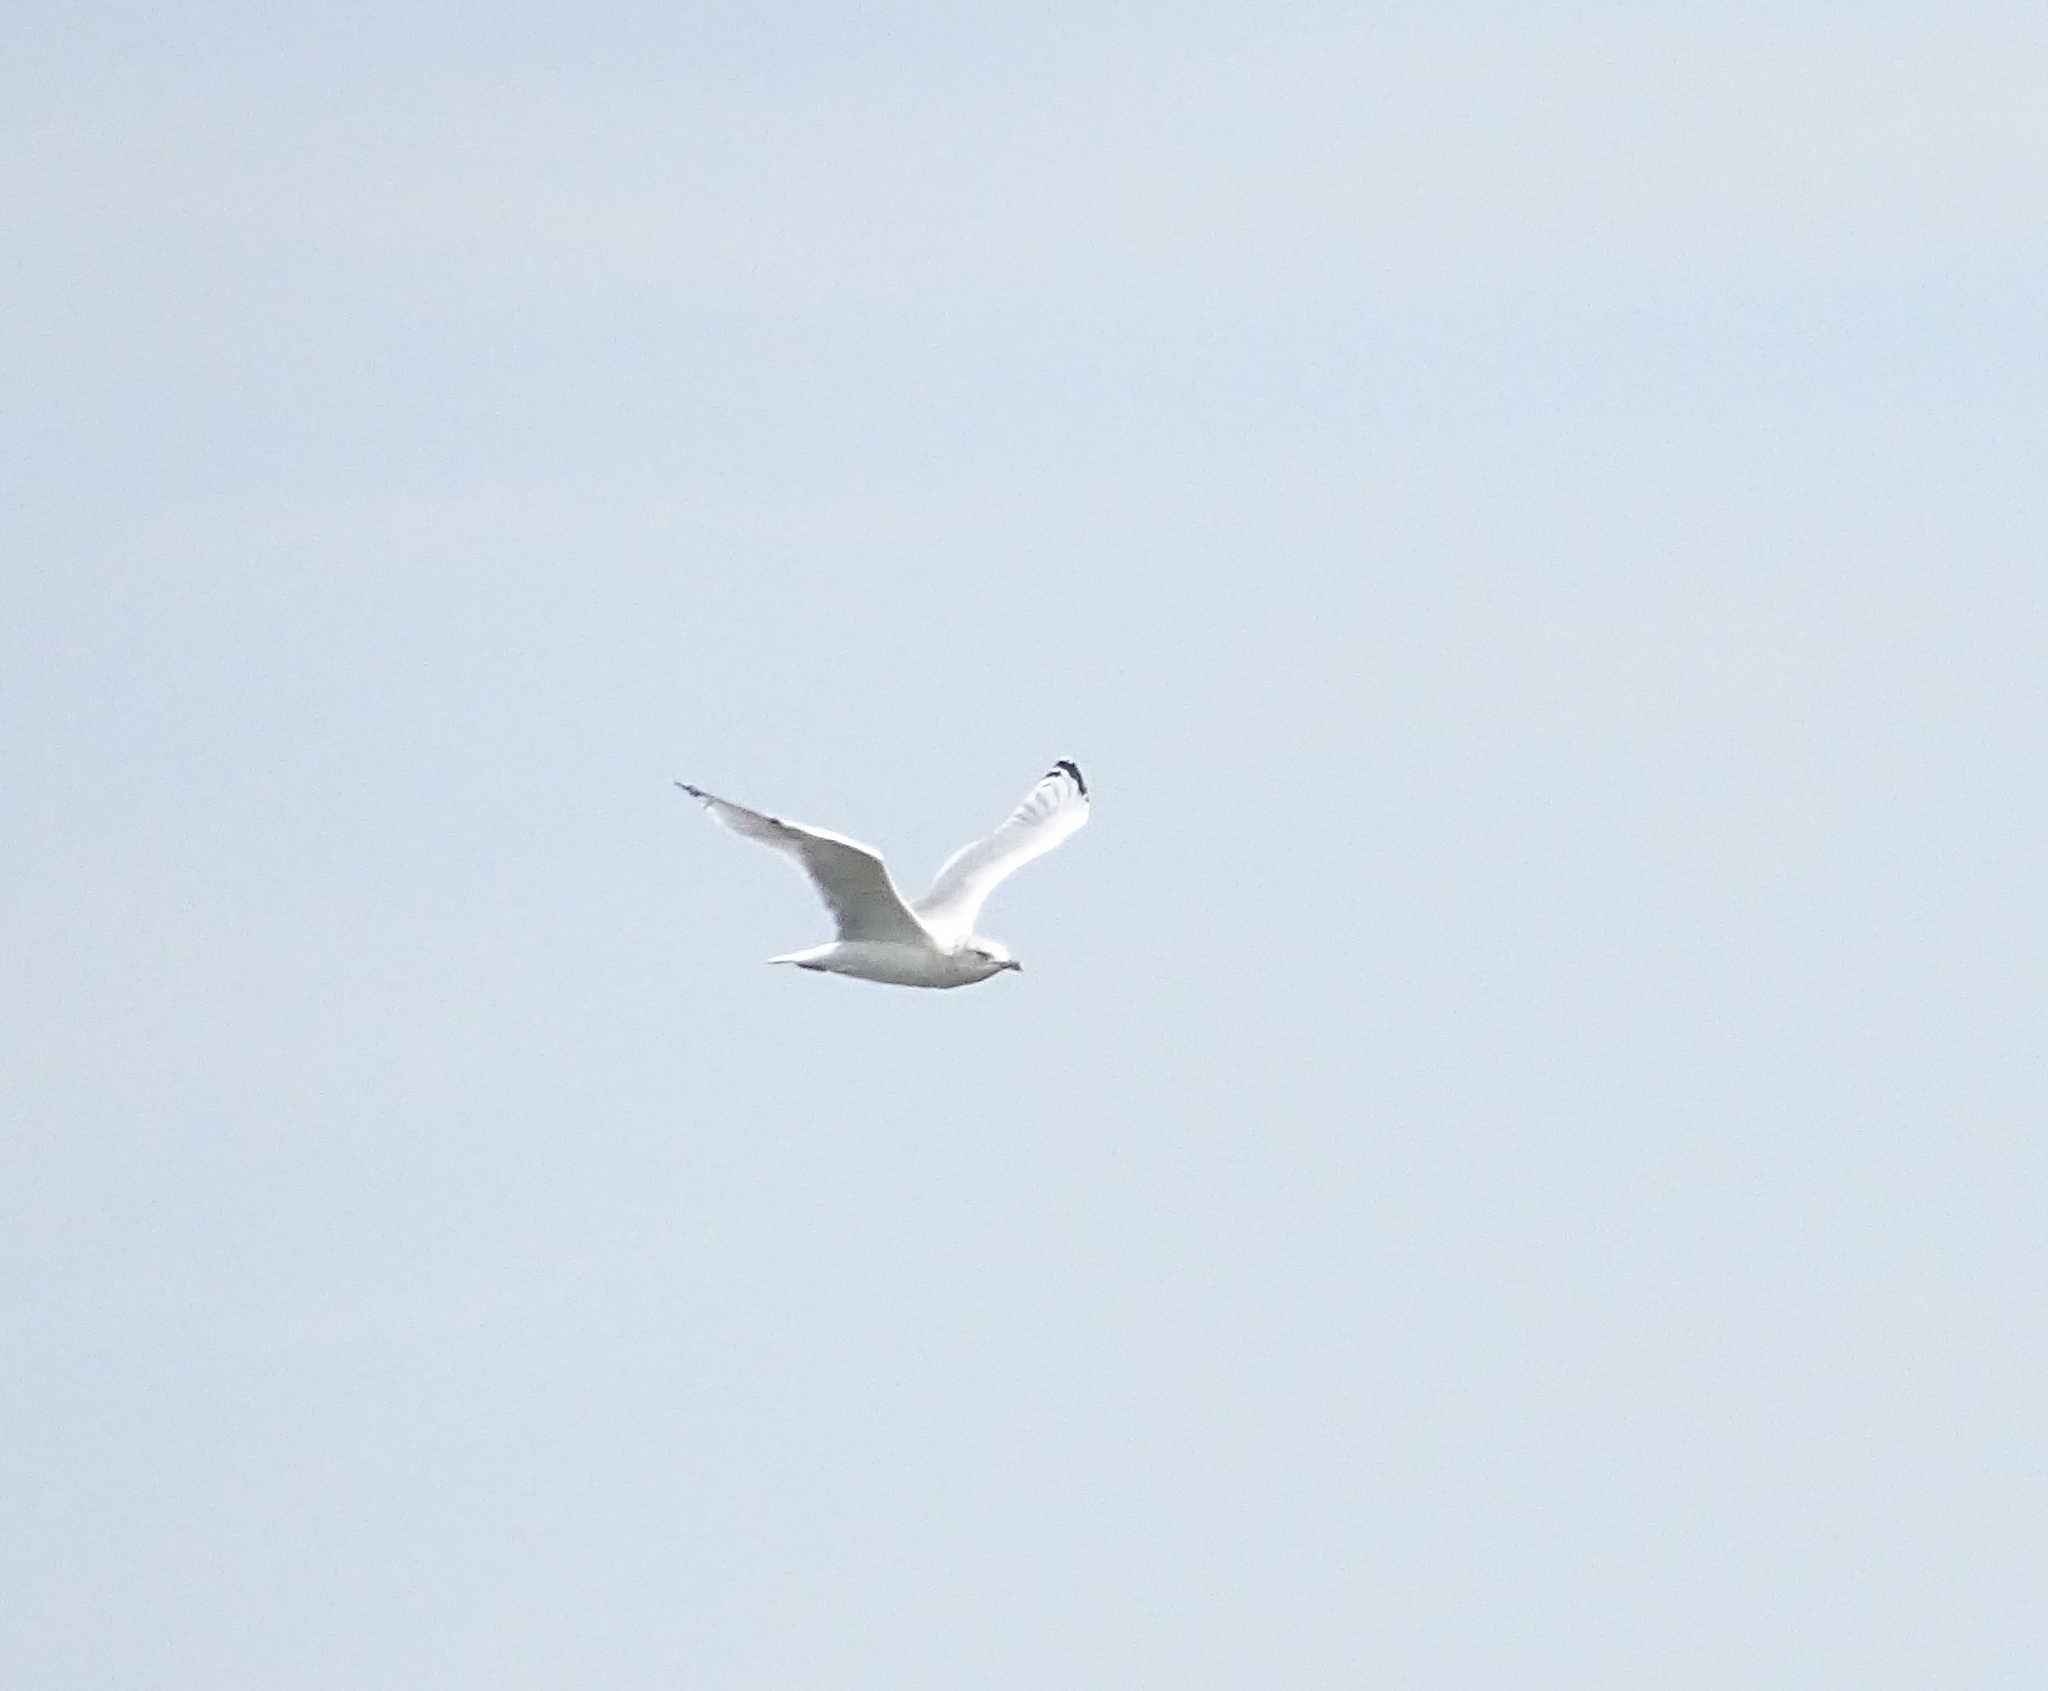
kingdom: Animalia
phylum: Chordata
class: Aves
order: Charadriiformes
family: Laridae
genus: Larus
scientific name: Larus delawarensis
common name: Ring-billed gull
